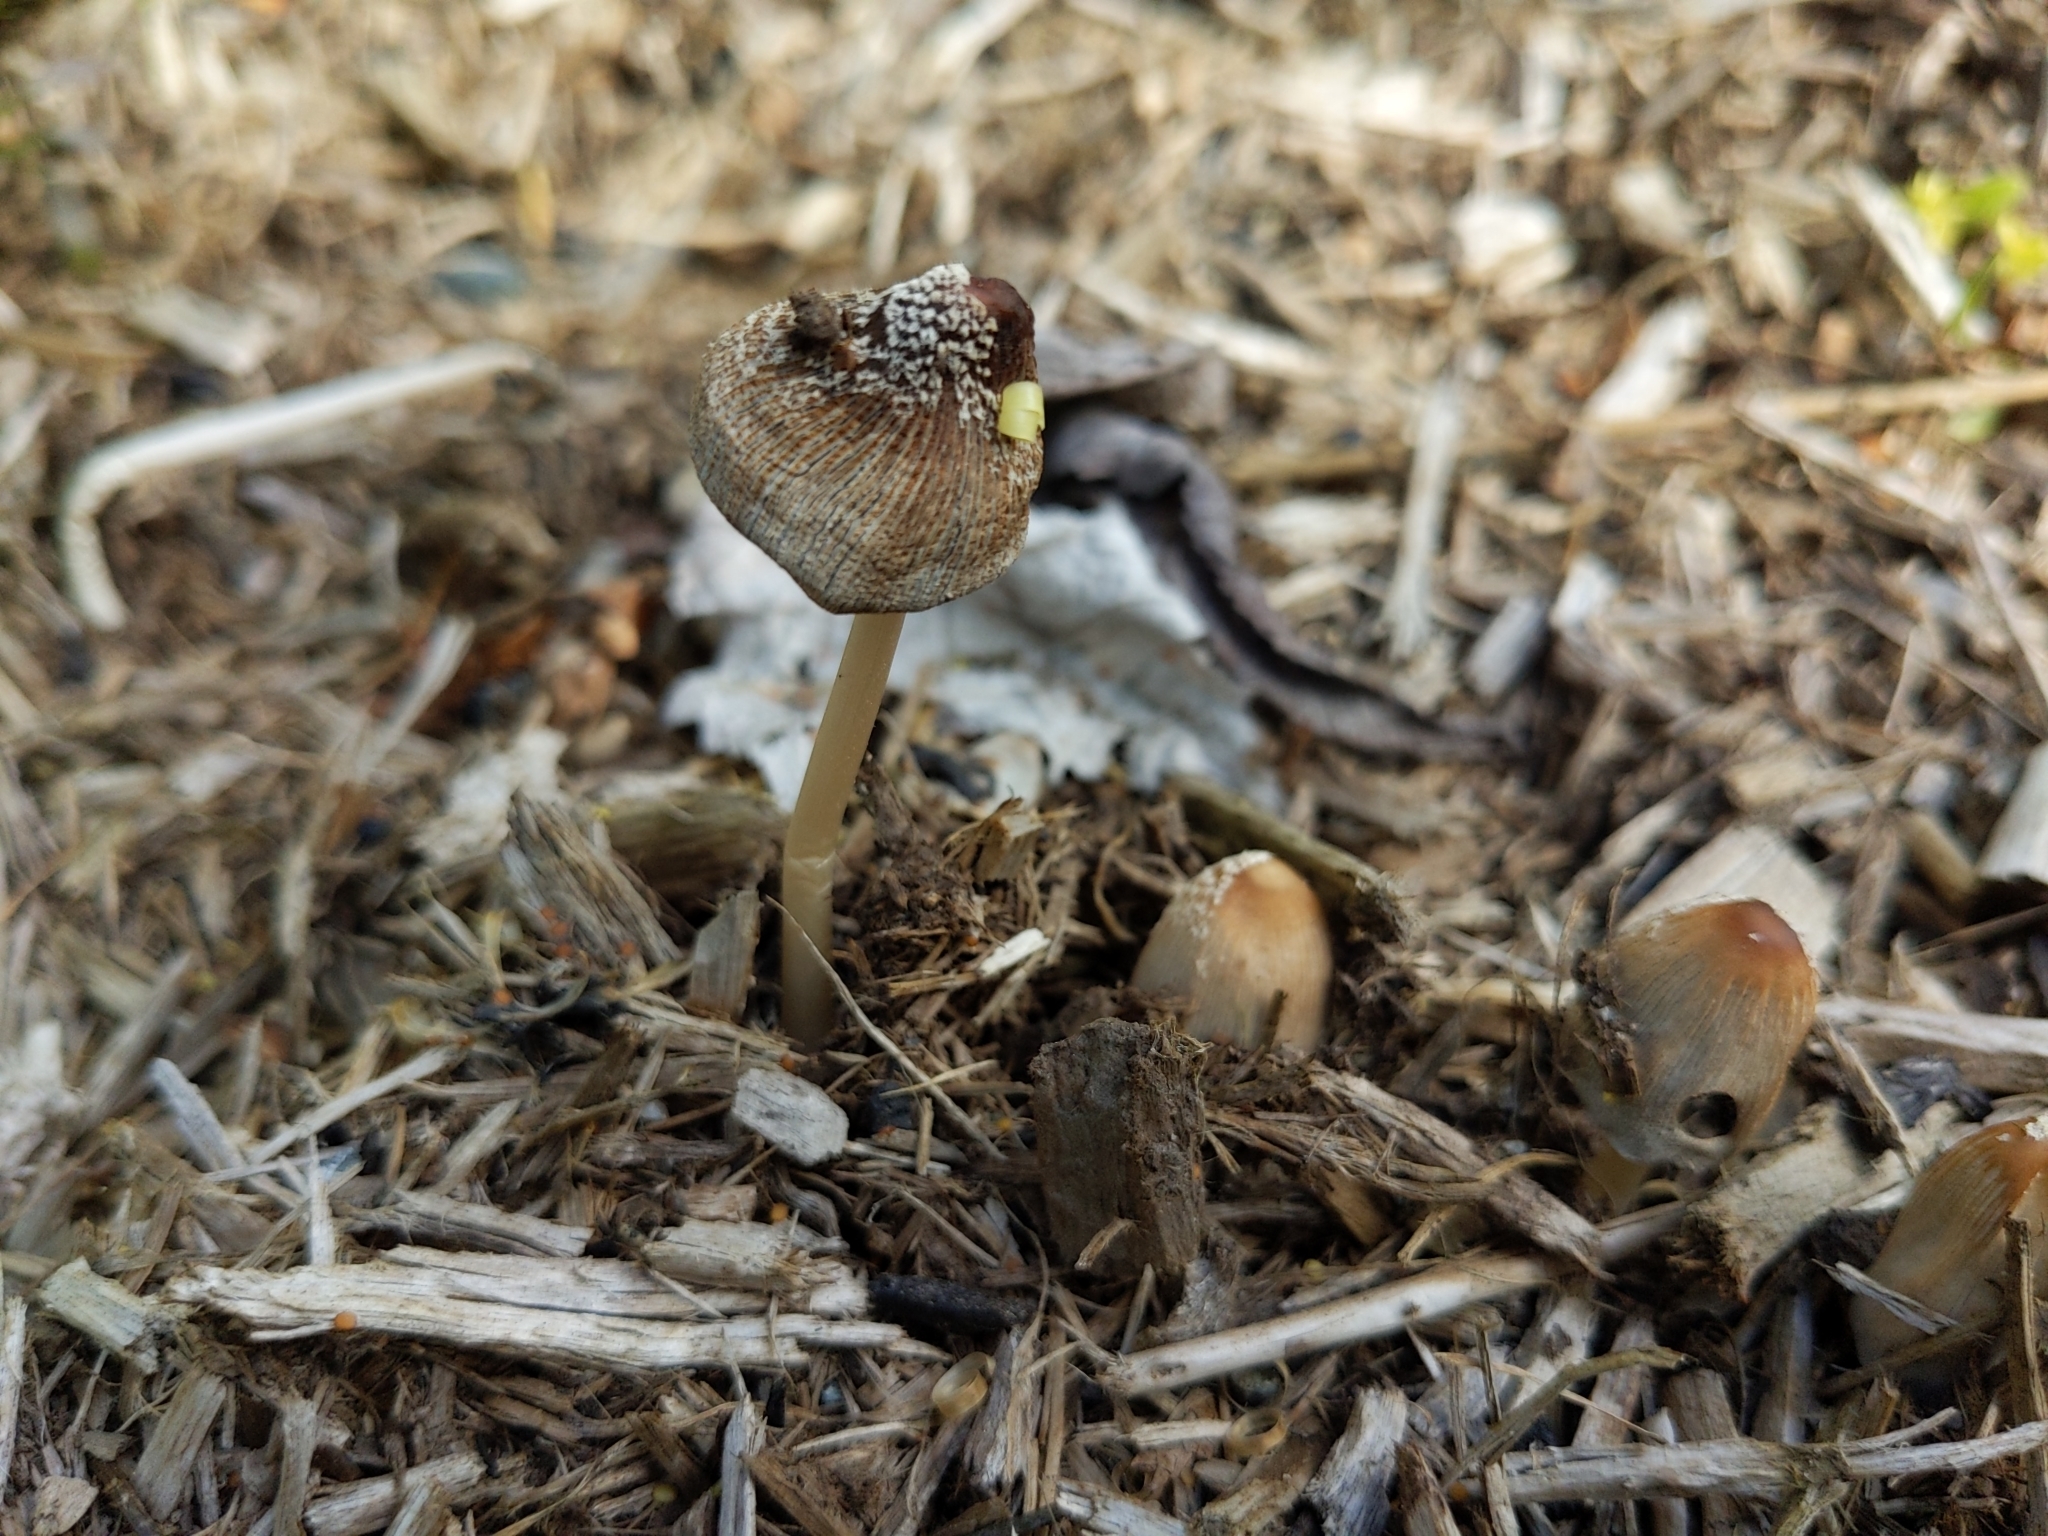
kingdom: Fungi
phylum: Basidiomycota
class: Agaricomycetes
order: Agaricales
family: Psathyrellaceae
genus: Coprinellus
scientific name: Coprinellus flocculosus
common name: Flocculose inkcap
